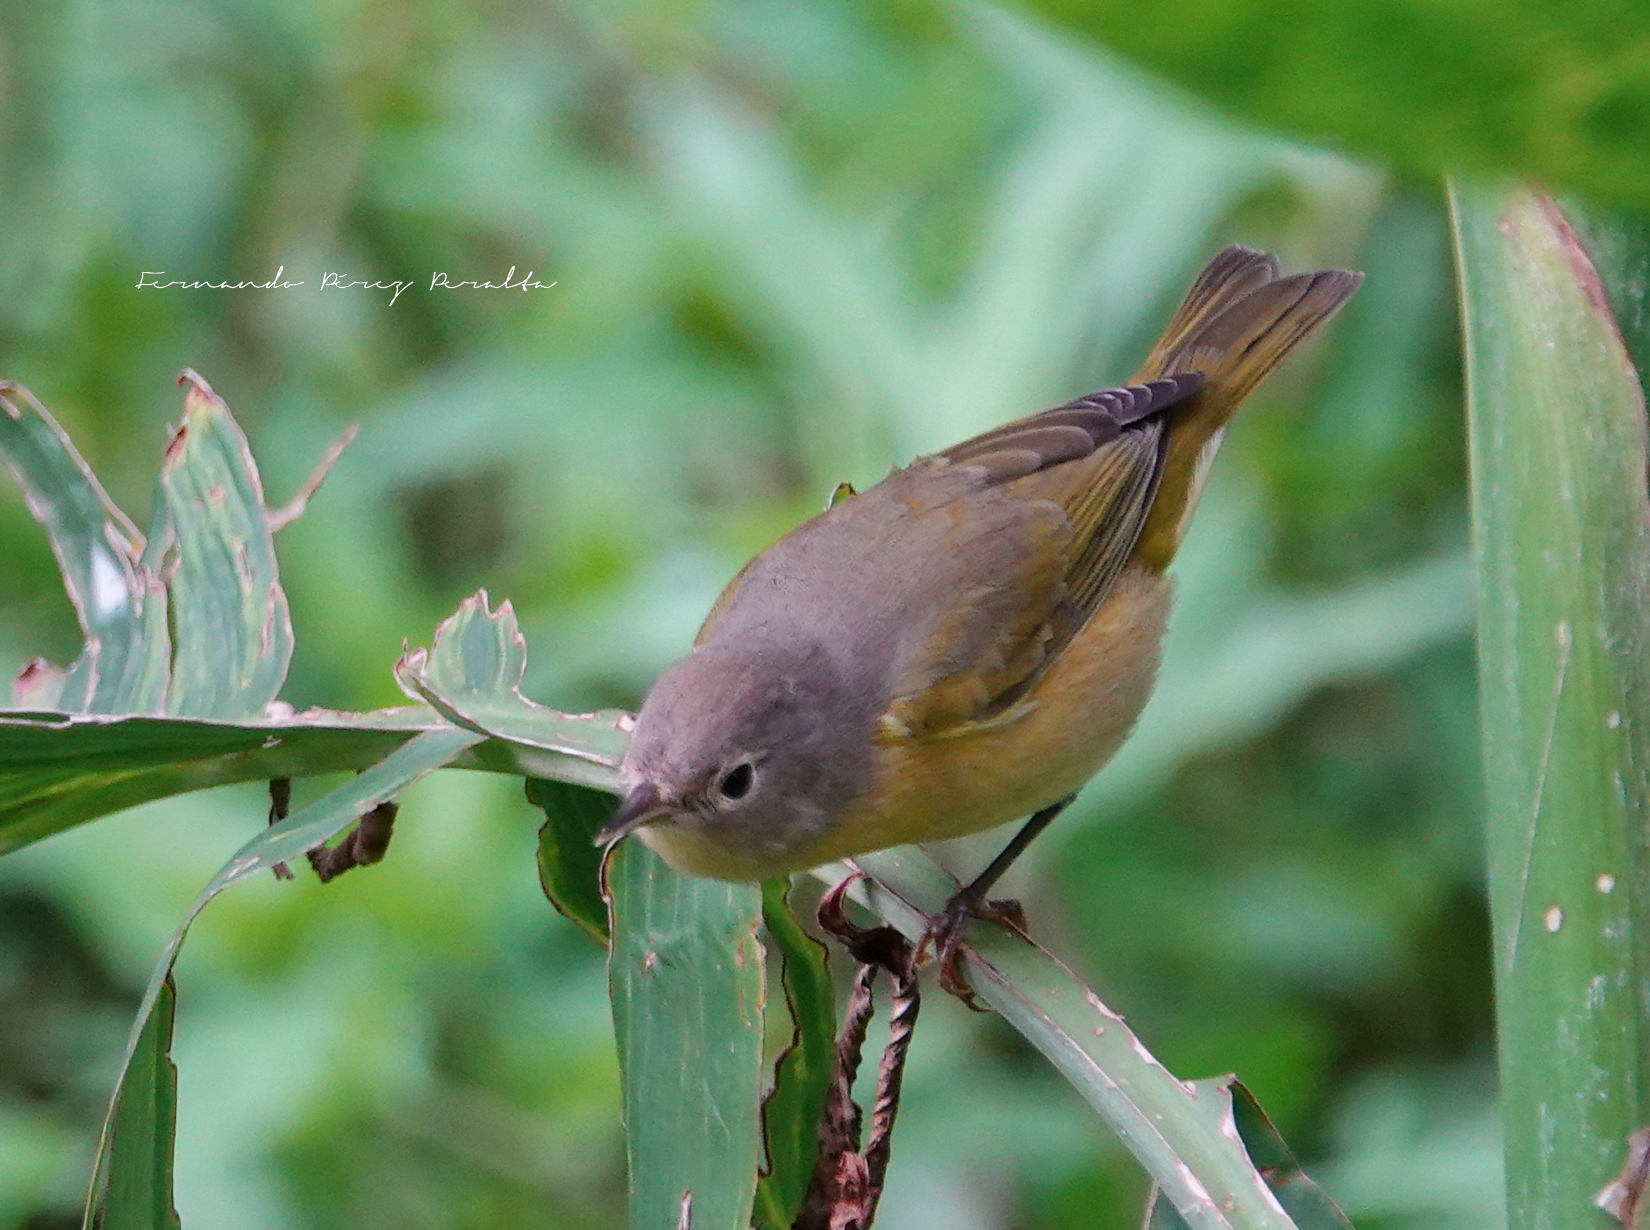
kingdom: Animalia
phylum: Chordata
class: Aves
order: Passeriformes
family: Parulidae
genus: Leiothlypis
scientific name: Leiothlypis ruficapilla
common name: Nashville warbler
